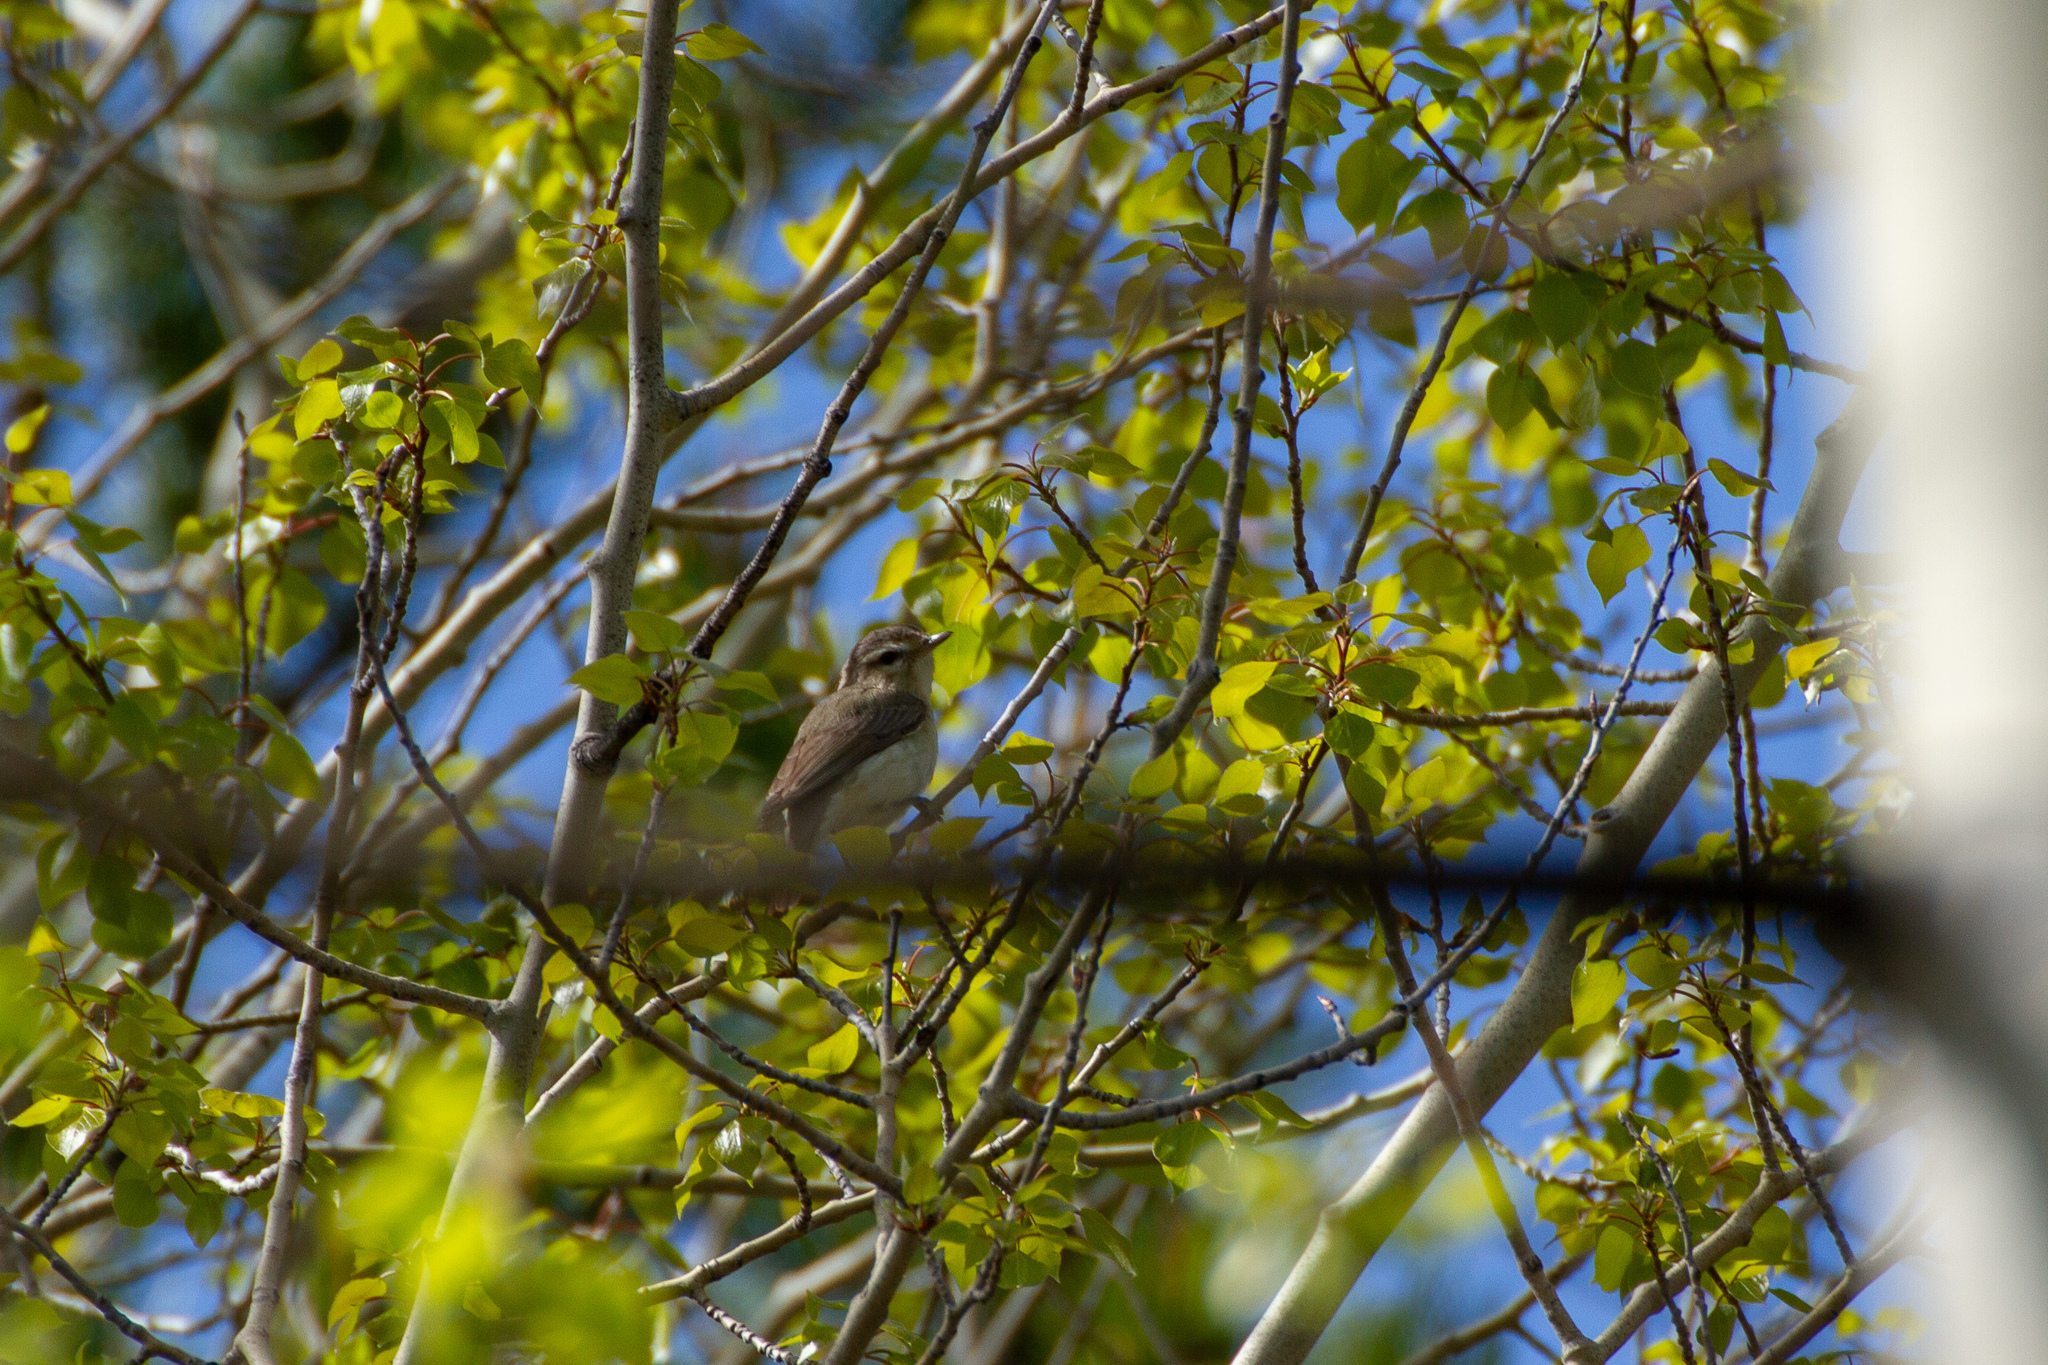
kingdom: Animalia
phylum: Chordata
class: Aves
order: Passeriformes
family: Vireonidae
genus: Vireo
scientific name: Vireo gilvus
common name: Warbling vireo
